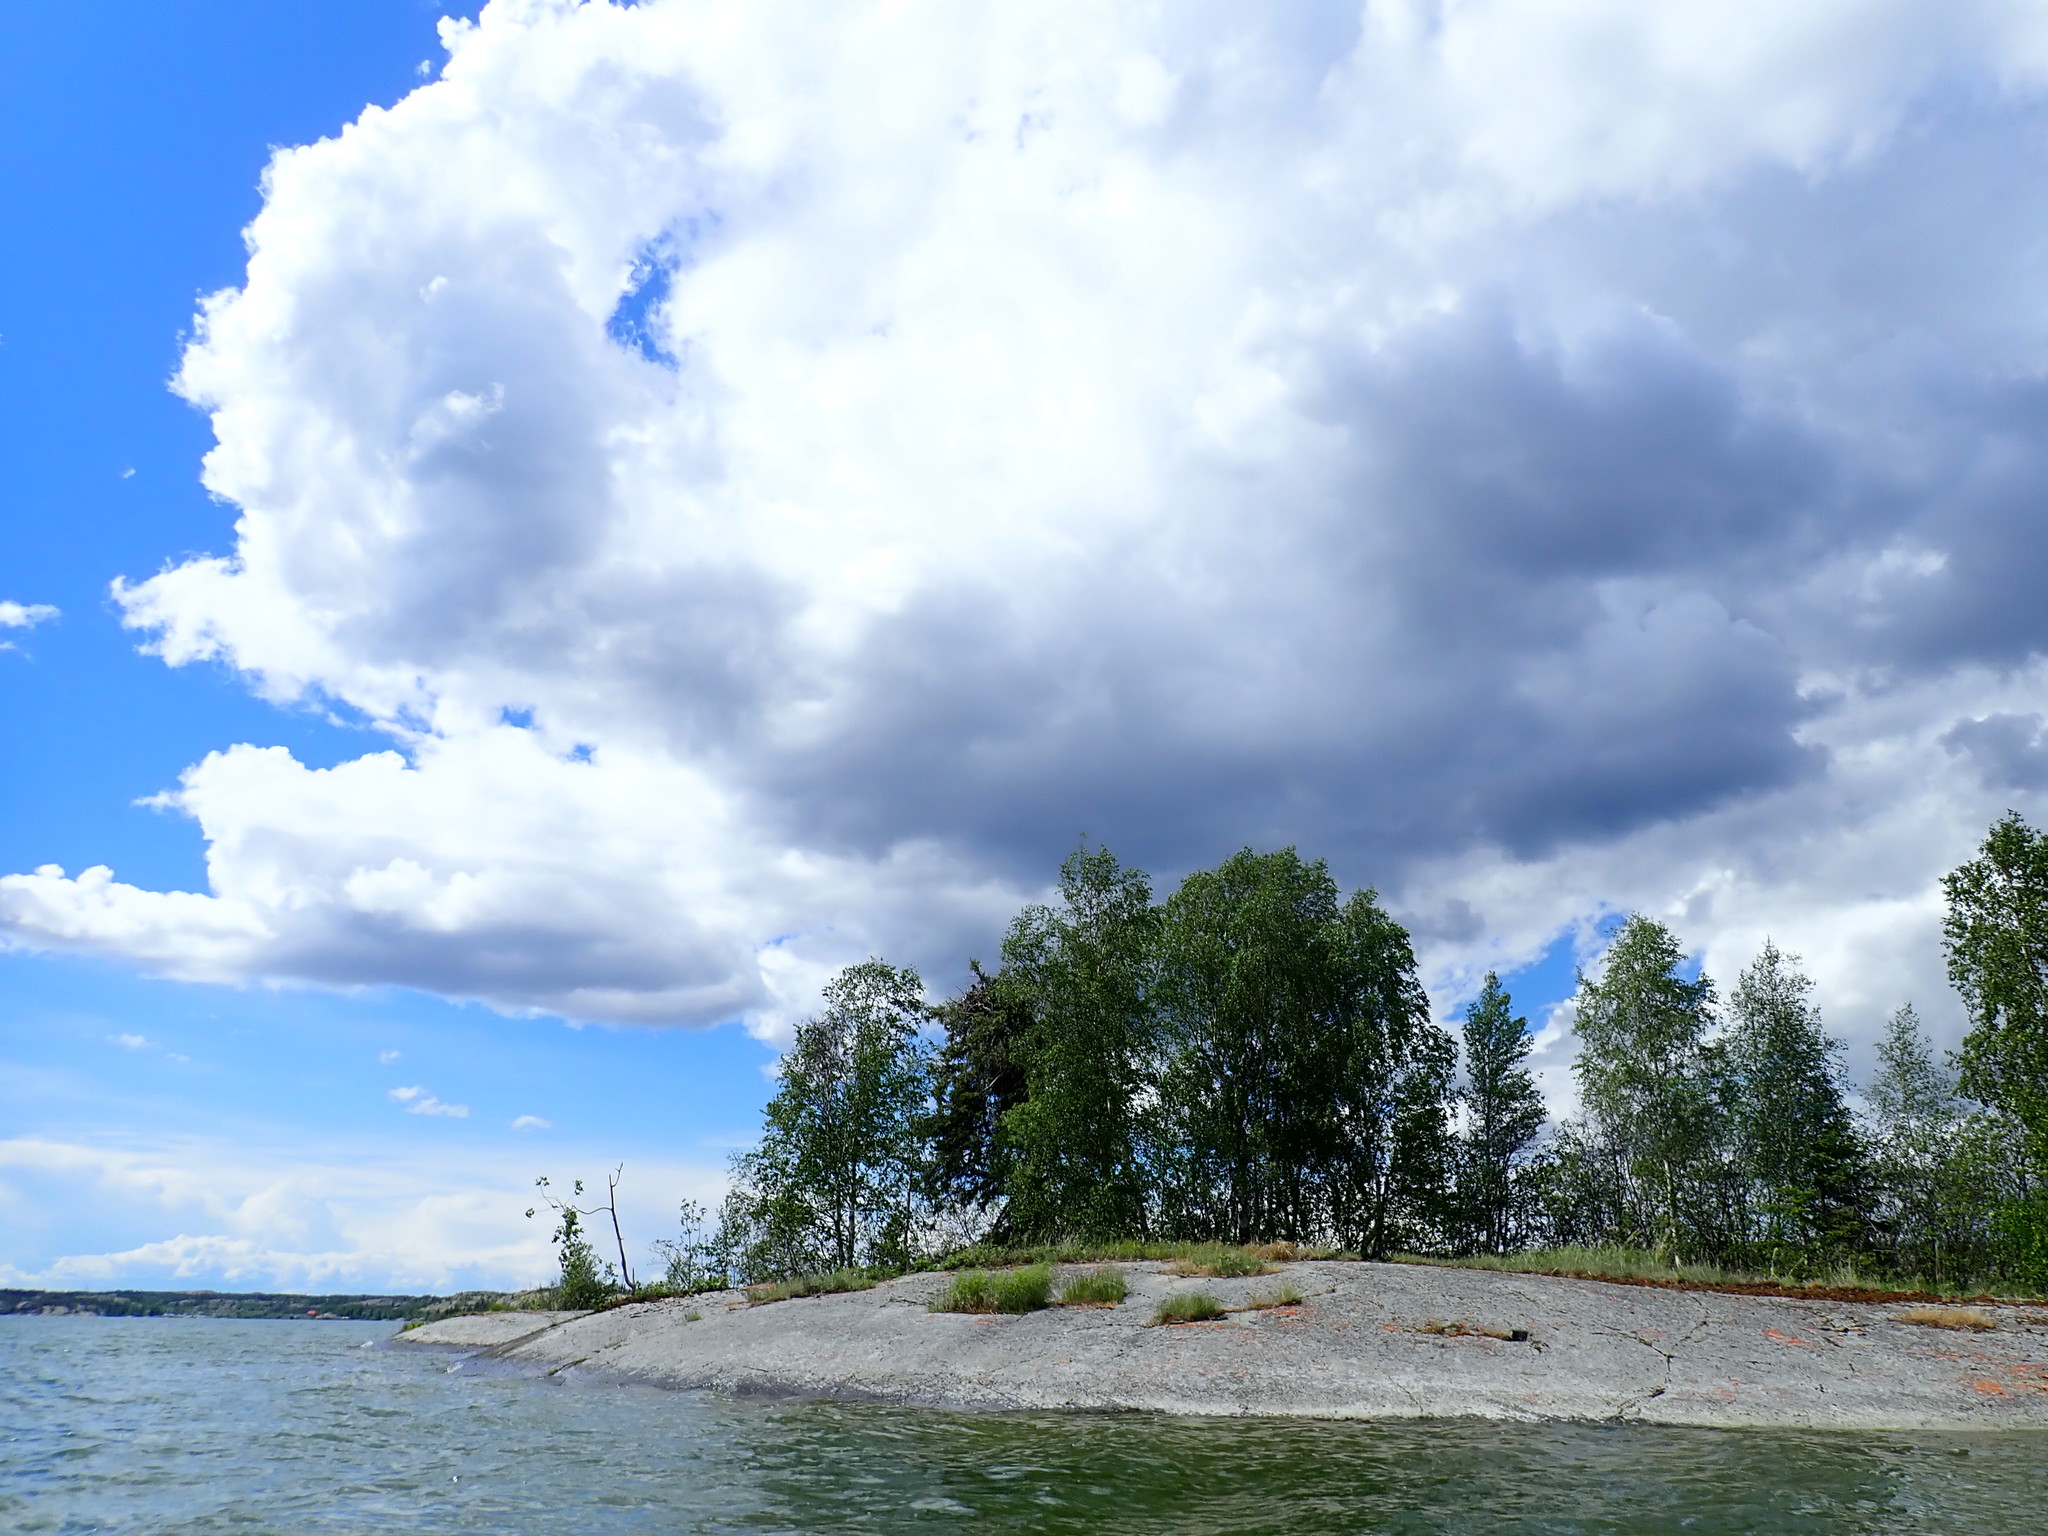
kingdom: Animalia
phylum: Chordata
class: Aves
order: Accipitriformes
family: Accipitridae
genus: Haliaeetus
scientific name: Haliaeetus leucocephalus
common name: Bald eagle
